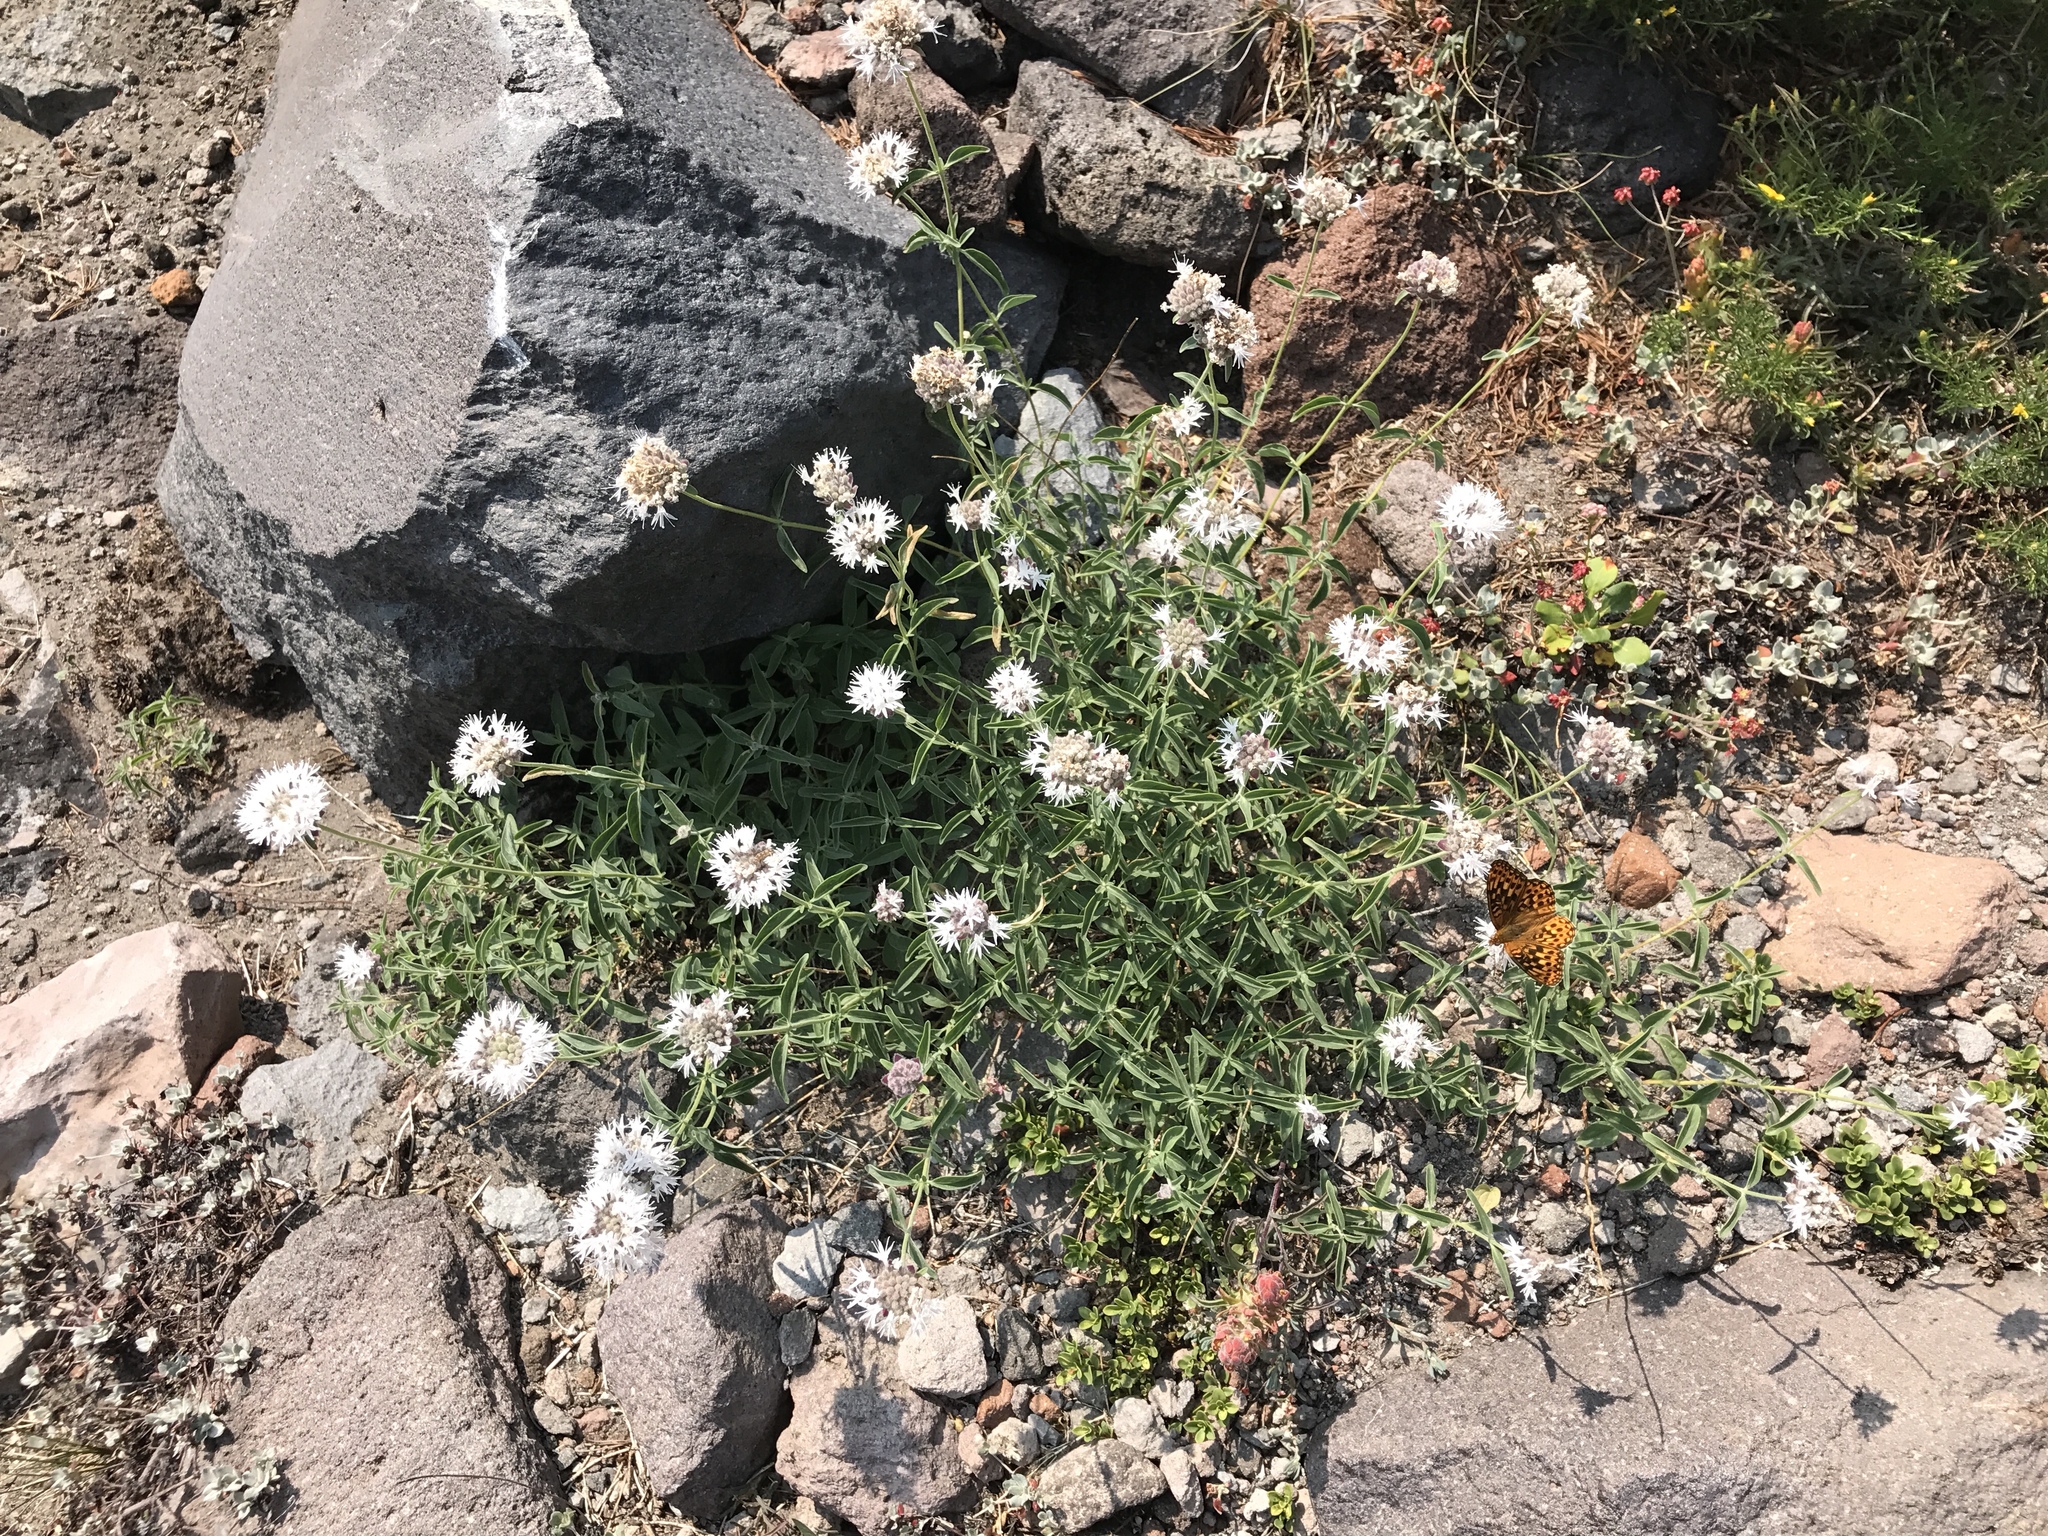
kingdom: Plantae
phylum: Tracheophyta
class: Magnoliopsida
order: Lamiales
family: Lamiaceae
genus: Monardella
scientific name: Monardella odoratissima
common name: Pacific monardella
